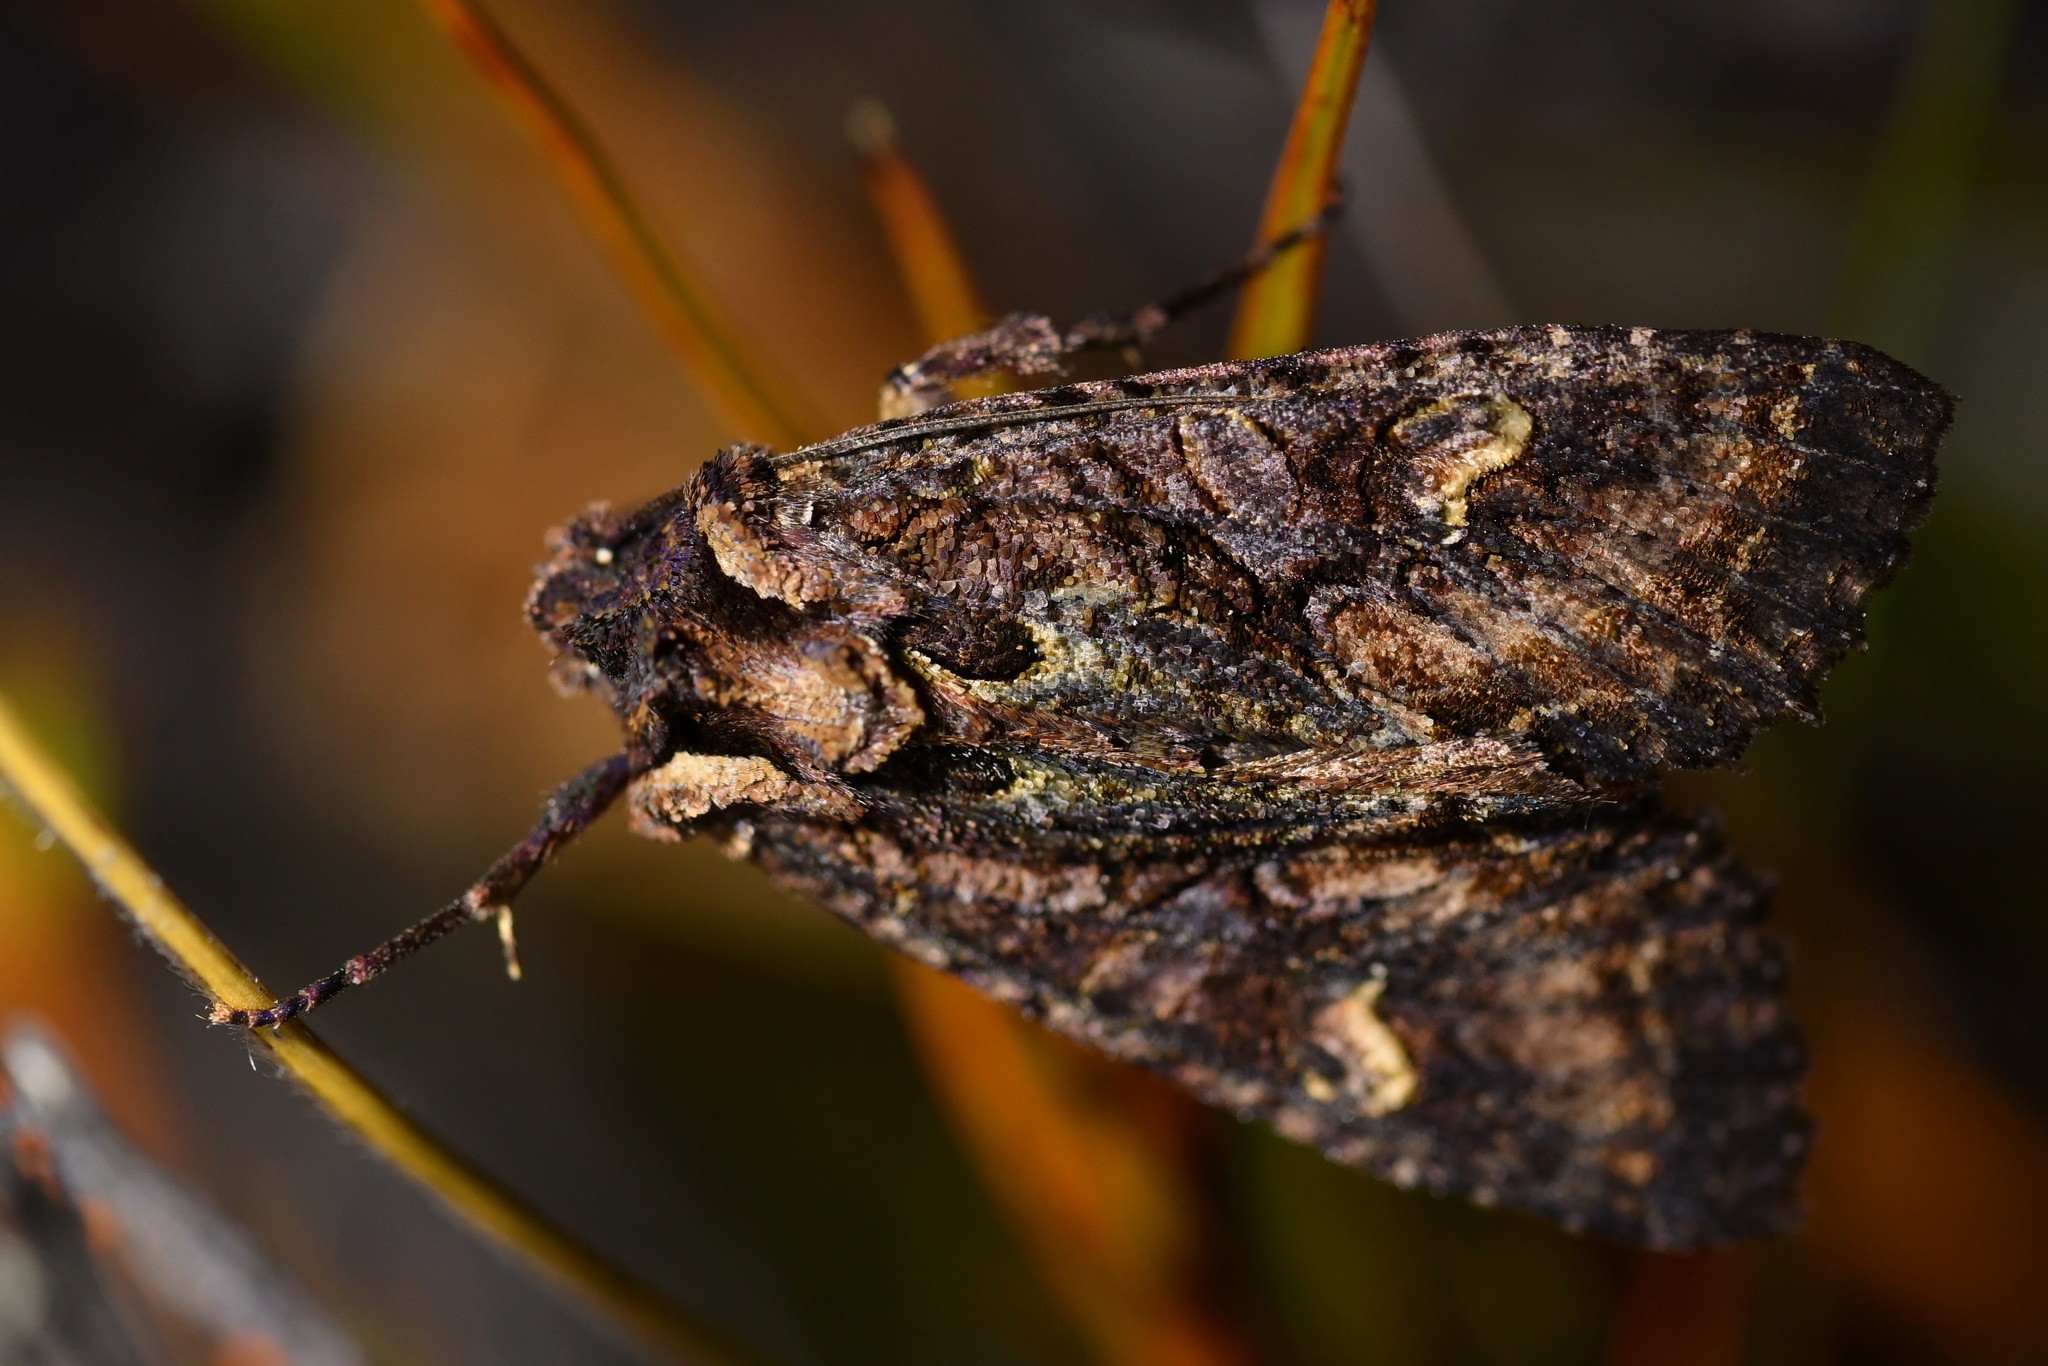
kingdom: Animalia
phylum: Arthropoda
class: Insecta
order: Lepidoptera
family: Noctuidae
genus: Meterana
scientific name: Meterana dotata
